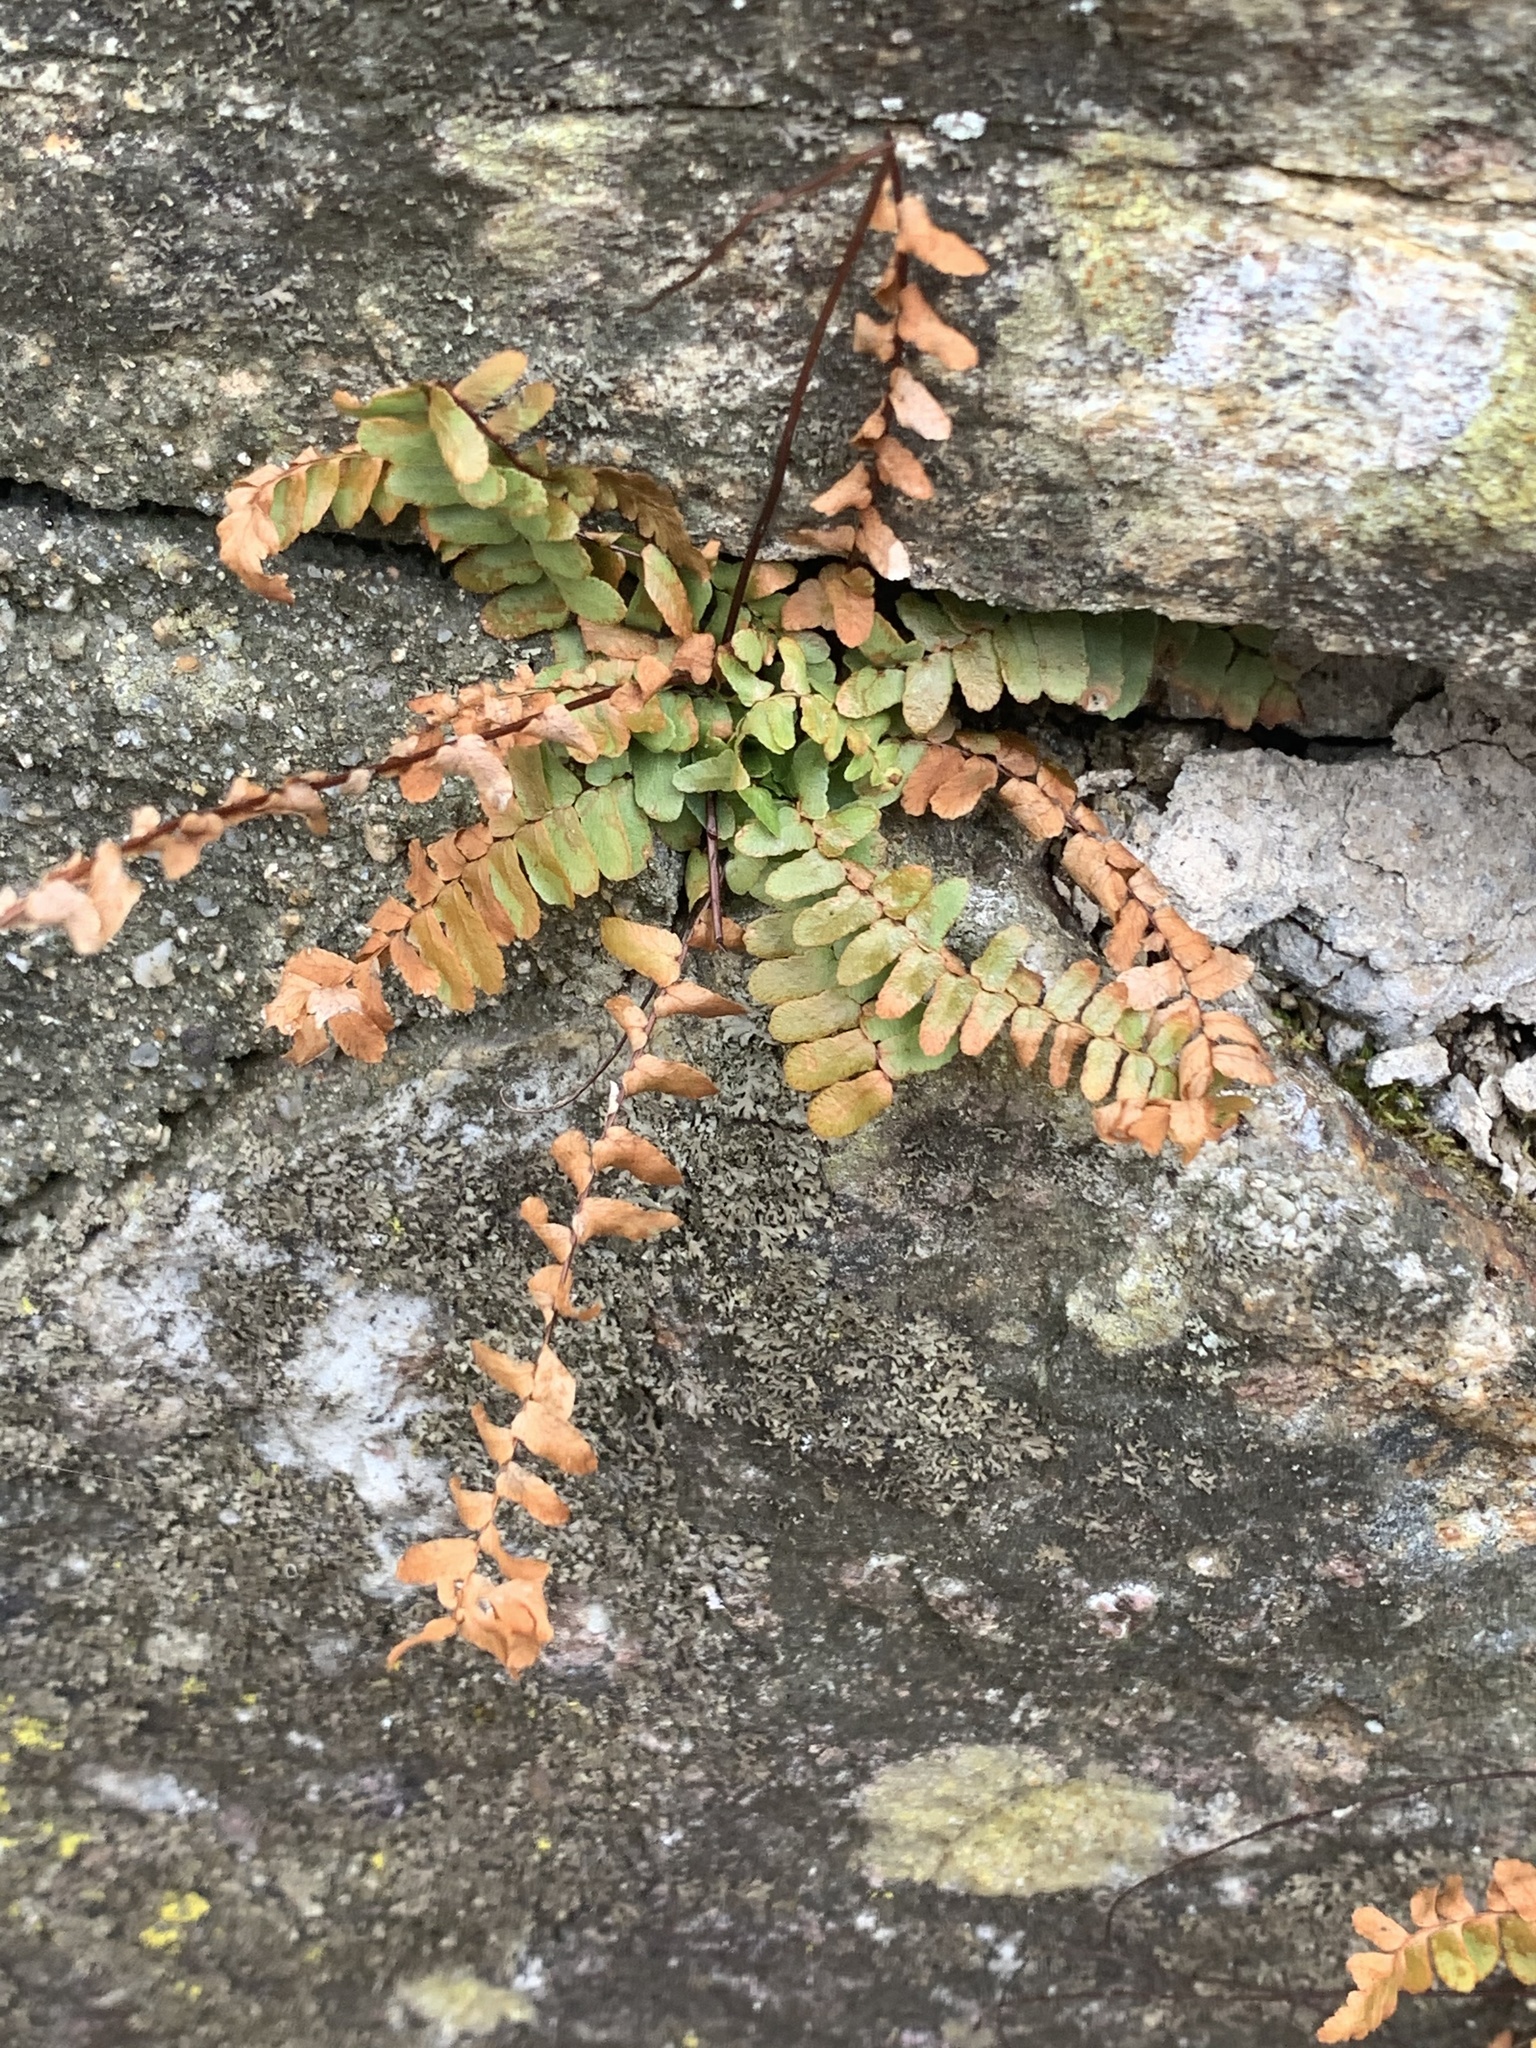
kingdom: Plantae
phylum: Tracheophyta
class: Polypodiopsida
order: Polypodiales
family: Aspleniaceae
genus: Asplenium
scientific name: Asplenium platyneuron
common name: Ebony spleenwort
